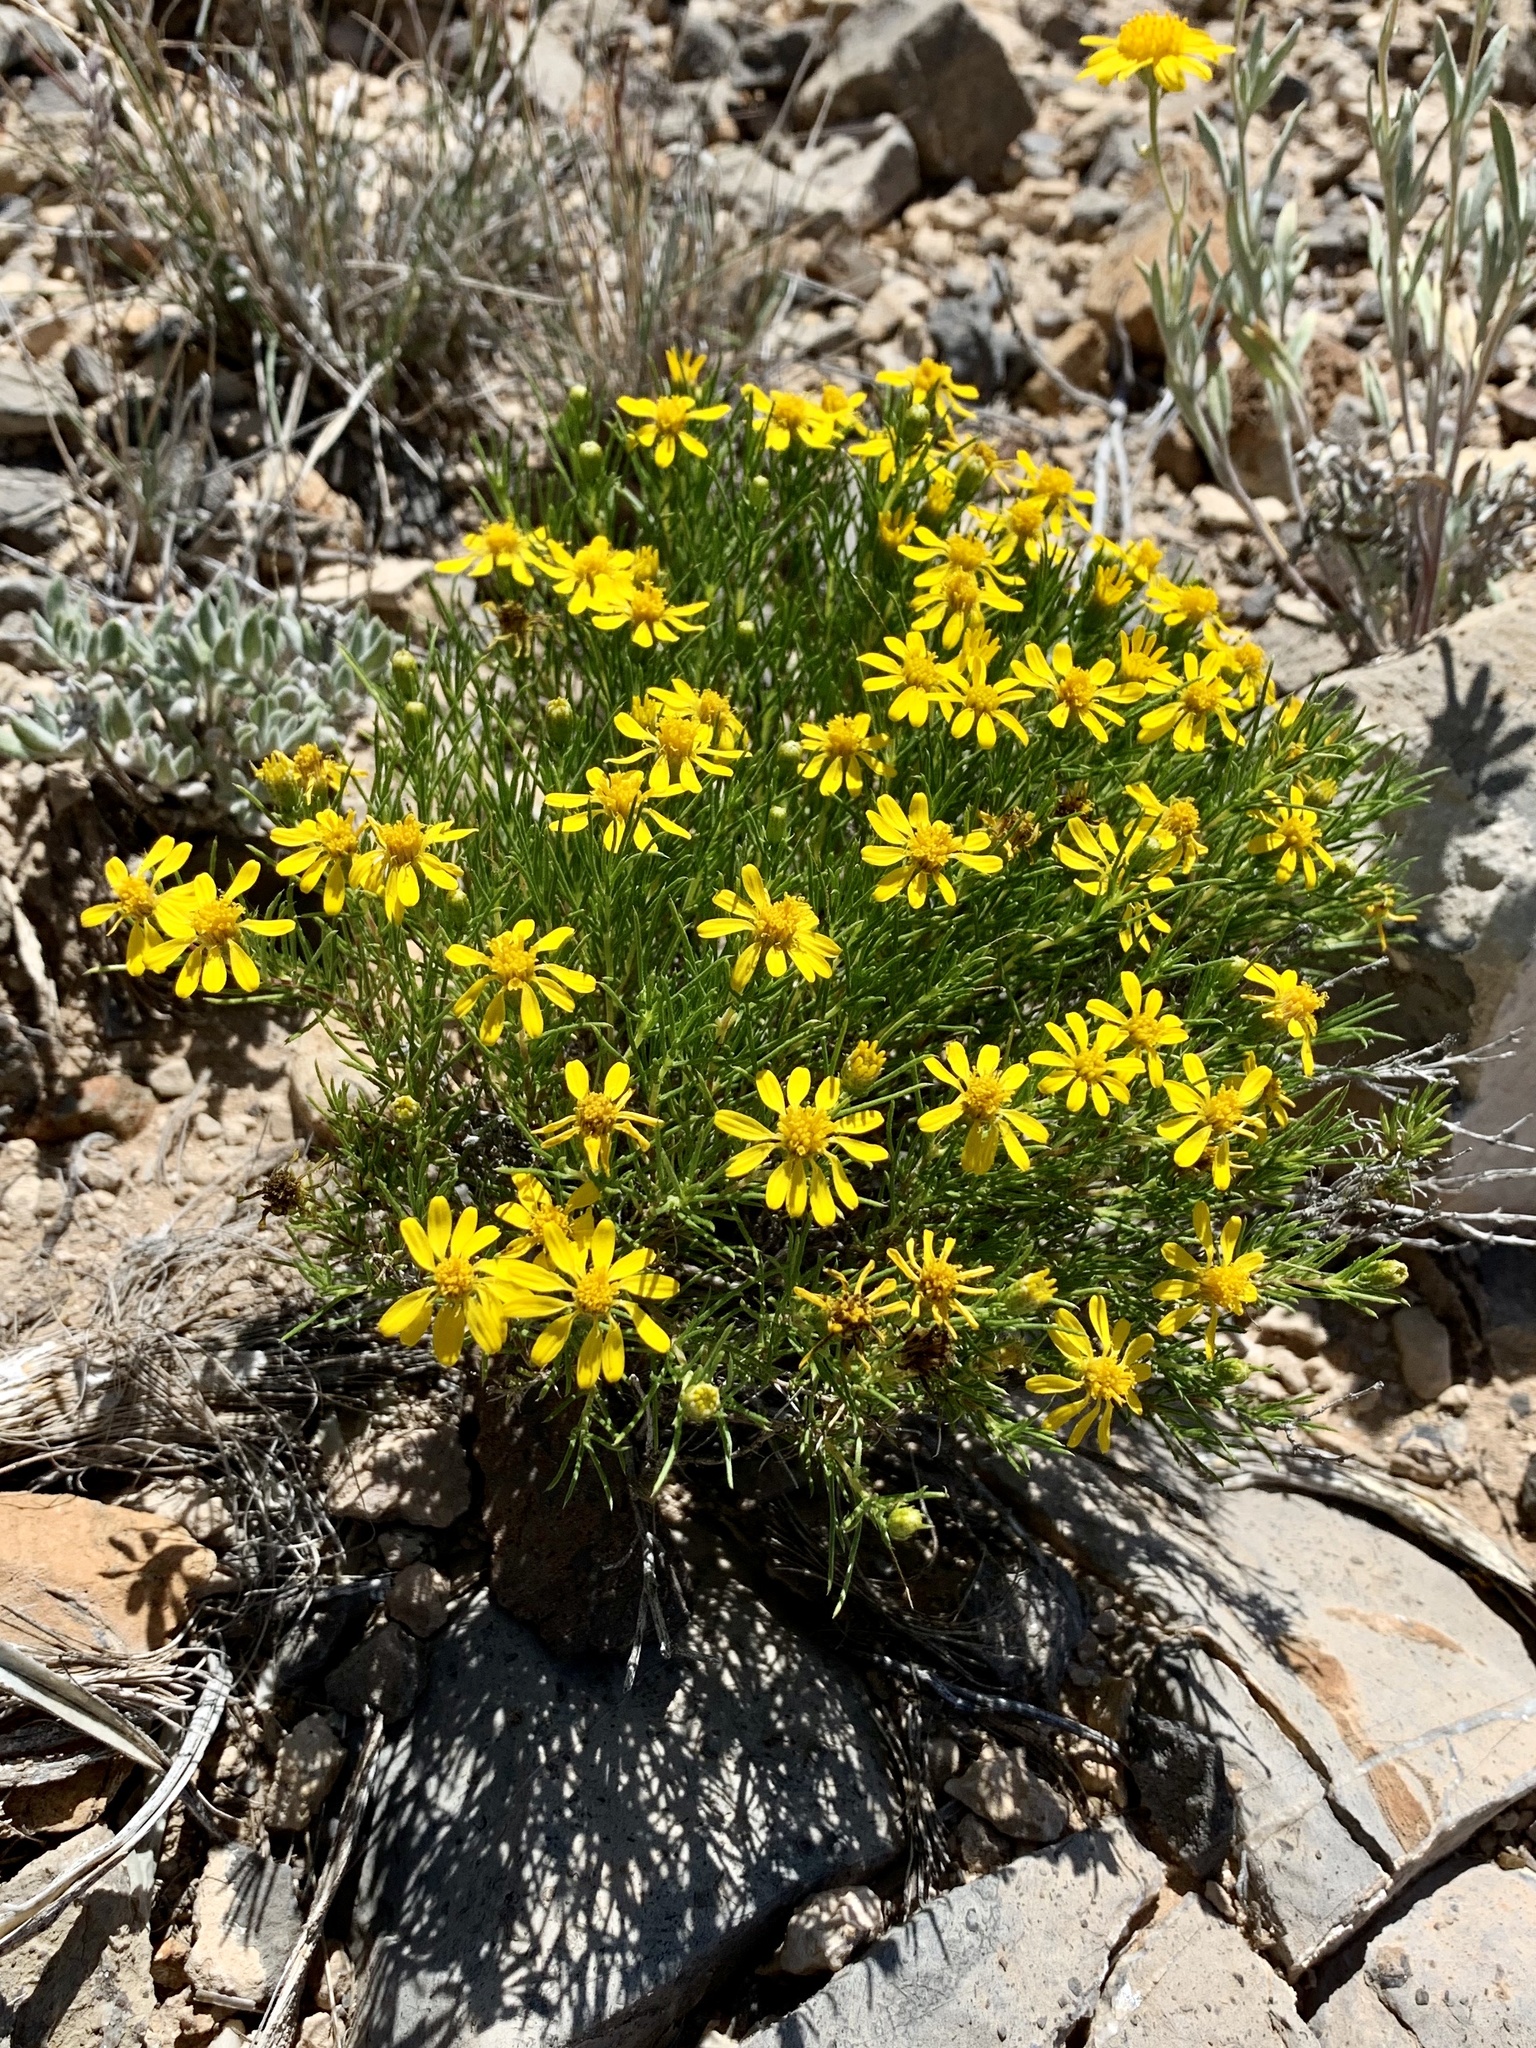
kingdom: Plantae
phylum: Tracheophyta
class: Magnoliopsida
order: Asterales
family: Asteraceae
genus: Thymophylla
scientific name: Thymophylla acerosa
